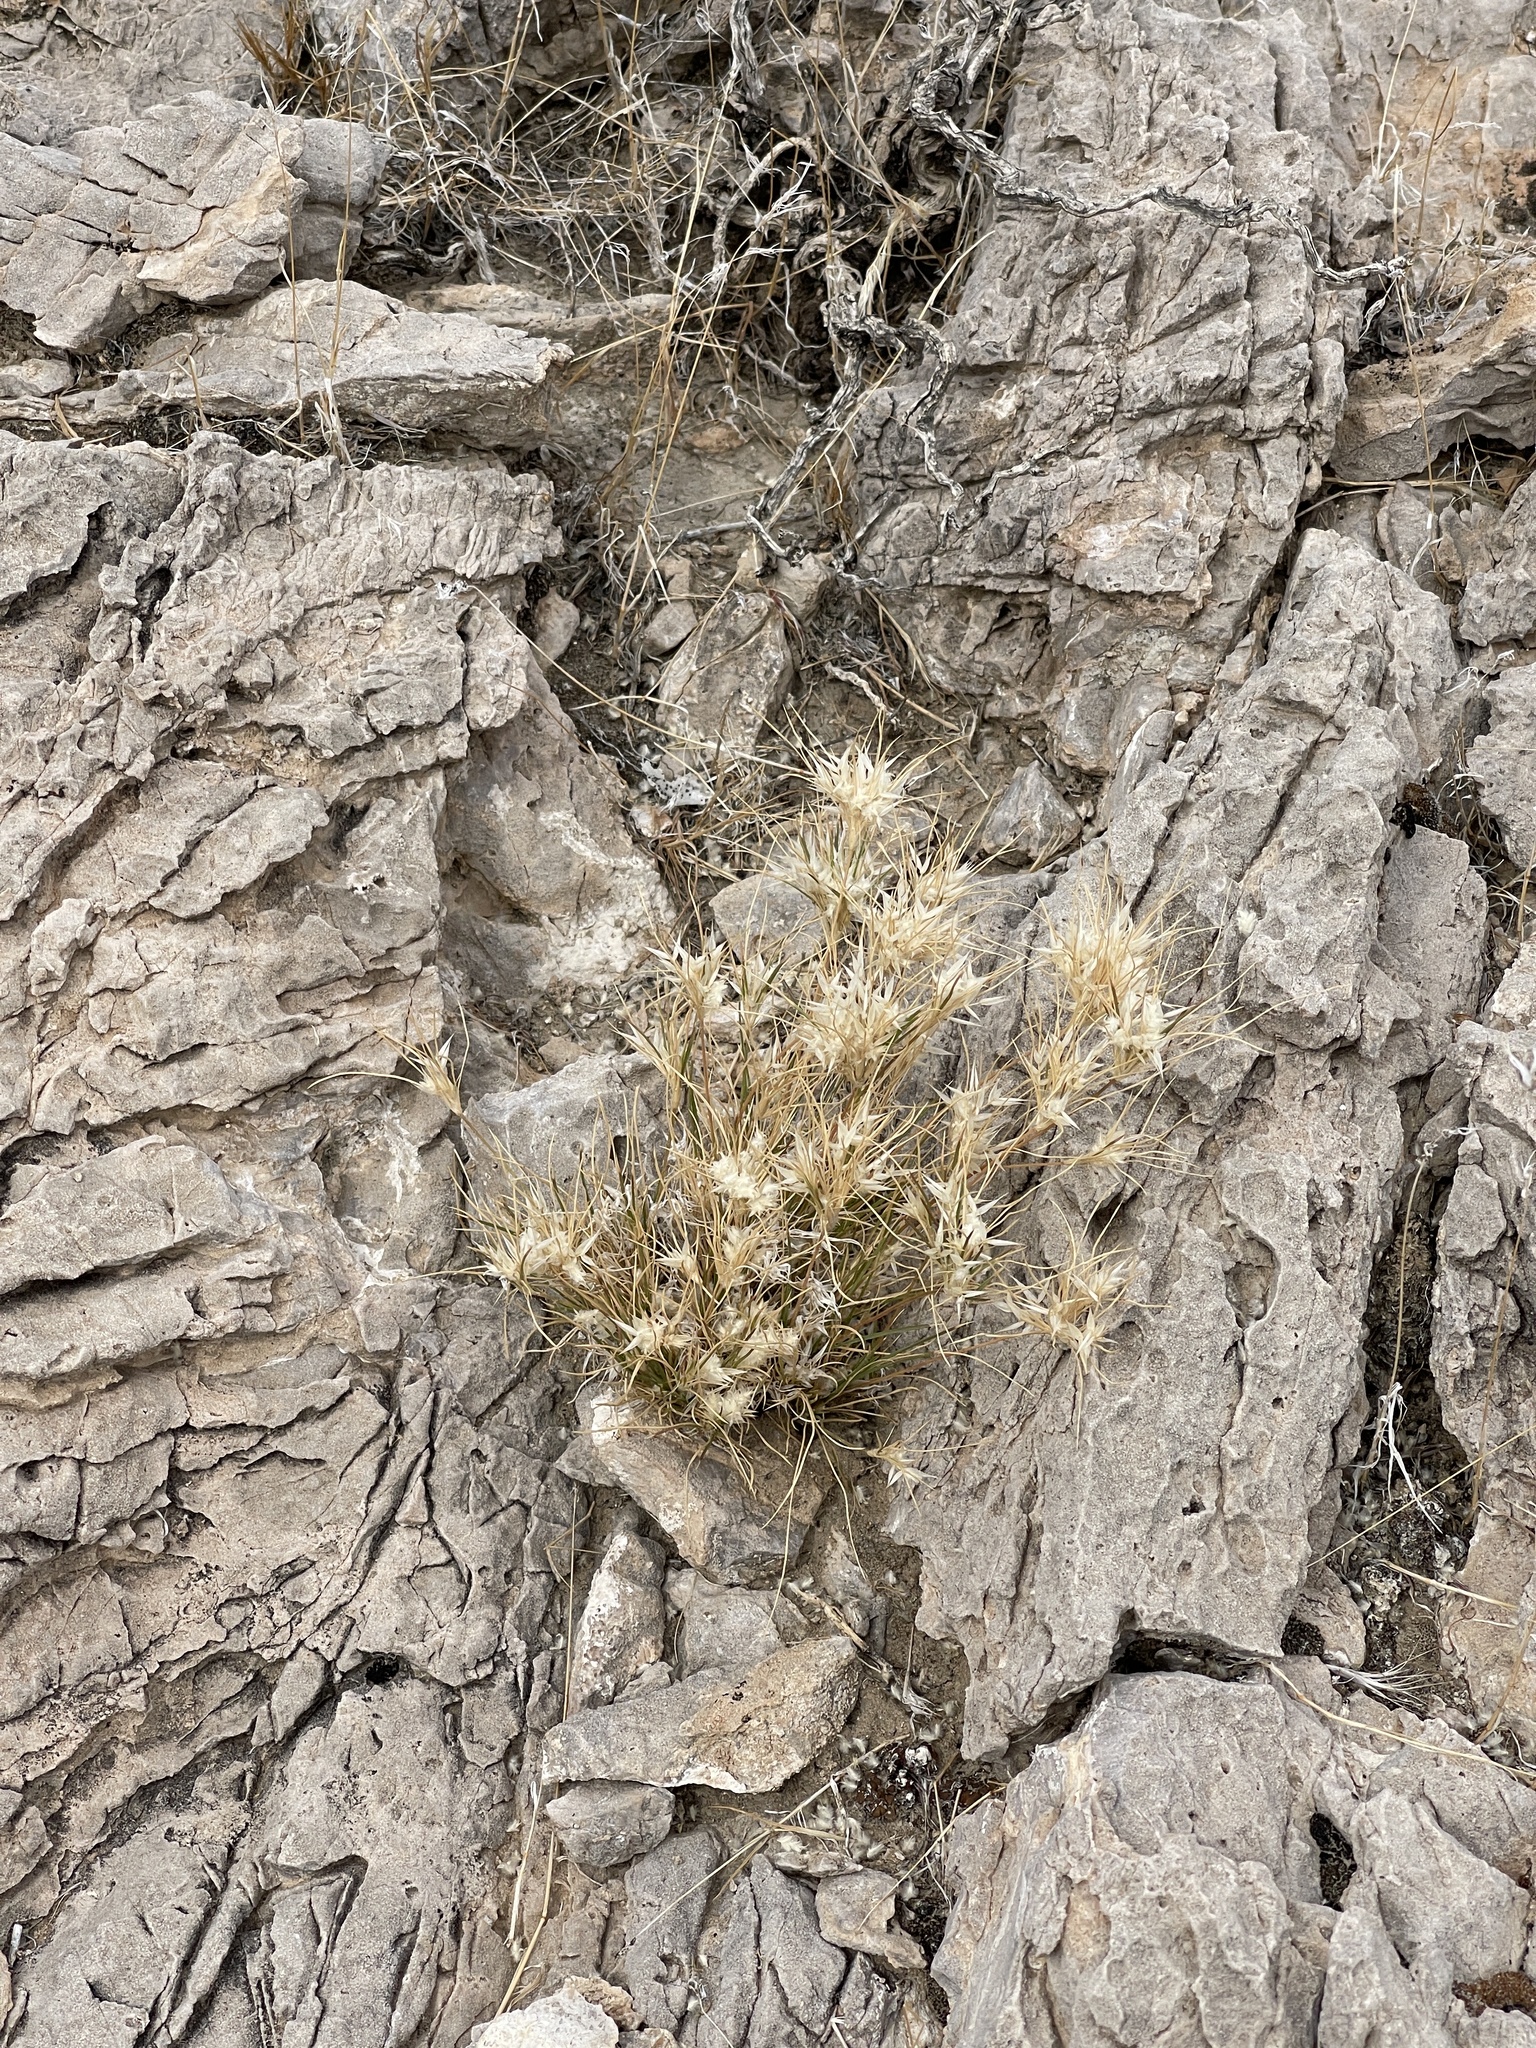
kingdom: Plantae
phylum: Tracheophyta
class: Liliopsida
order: Poales
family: Poaceae
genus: Dasyochloa
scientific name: Dasyochloa pulchella
